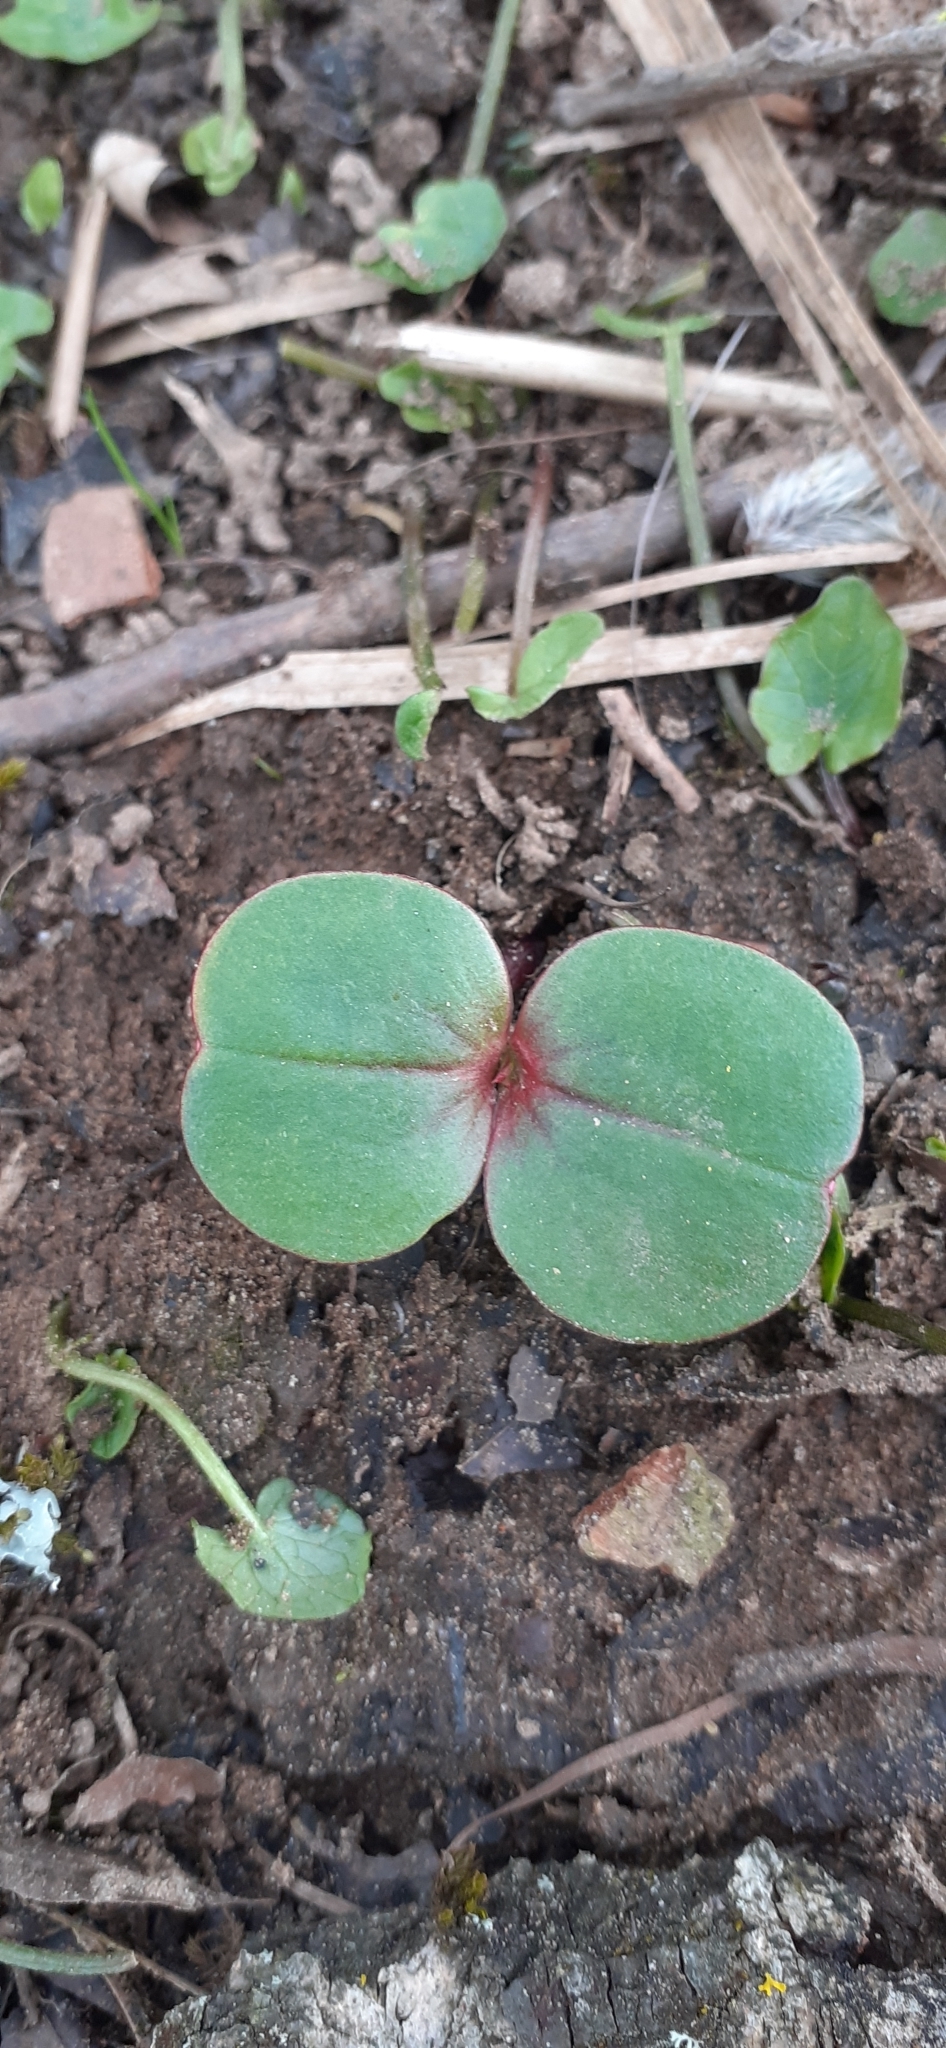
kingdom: Plantae
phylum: Tracheophyta
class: Magnoliopsida
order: Ericales
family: Balsaminaceae
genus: Impatiens
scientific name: Impatiens glandulifera
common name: Himalayan balsam
